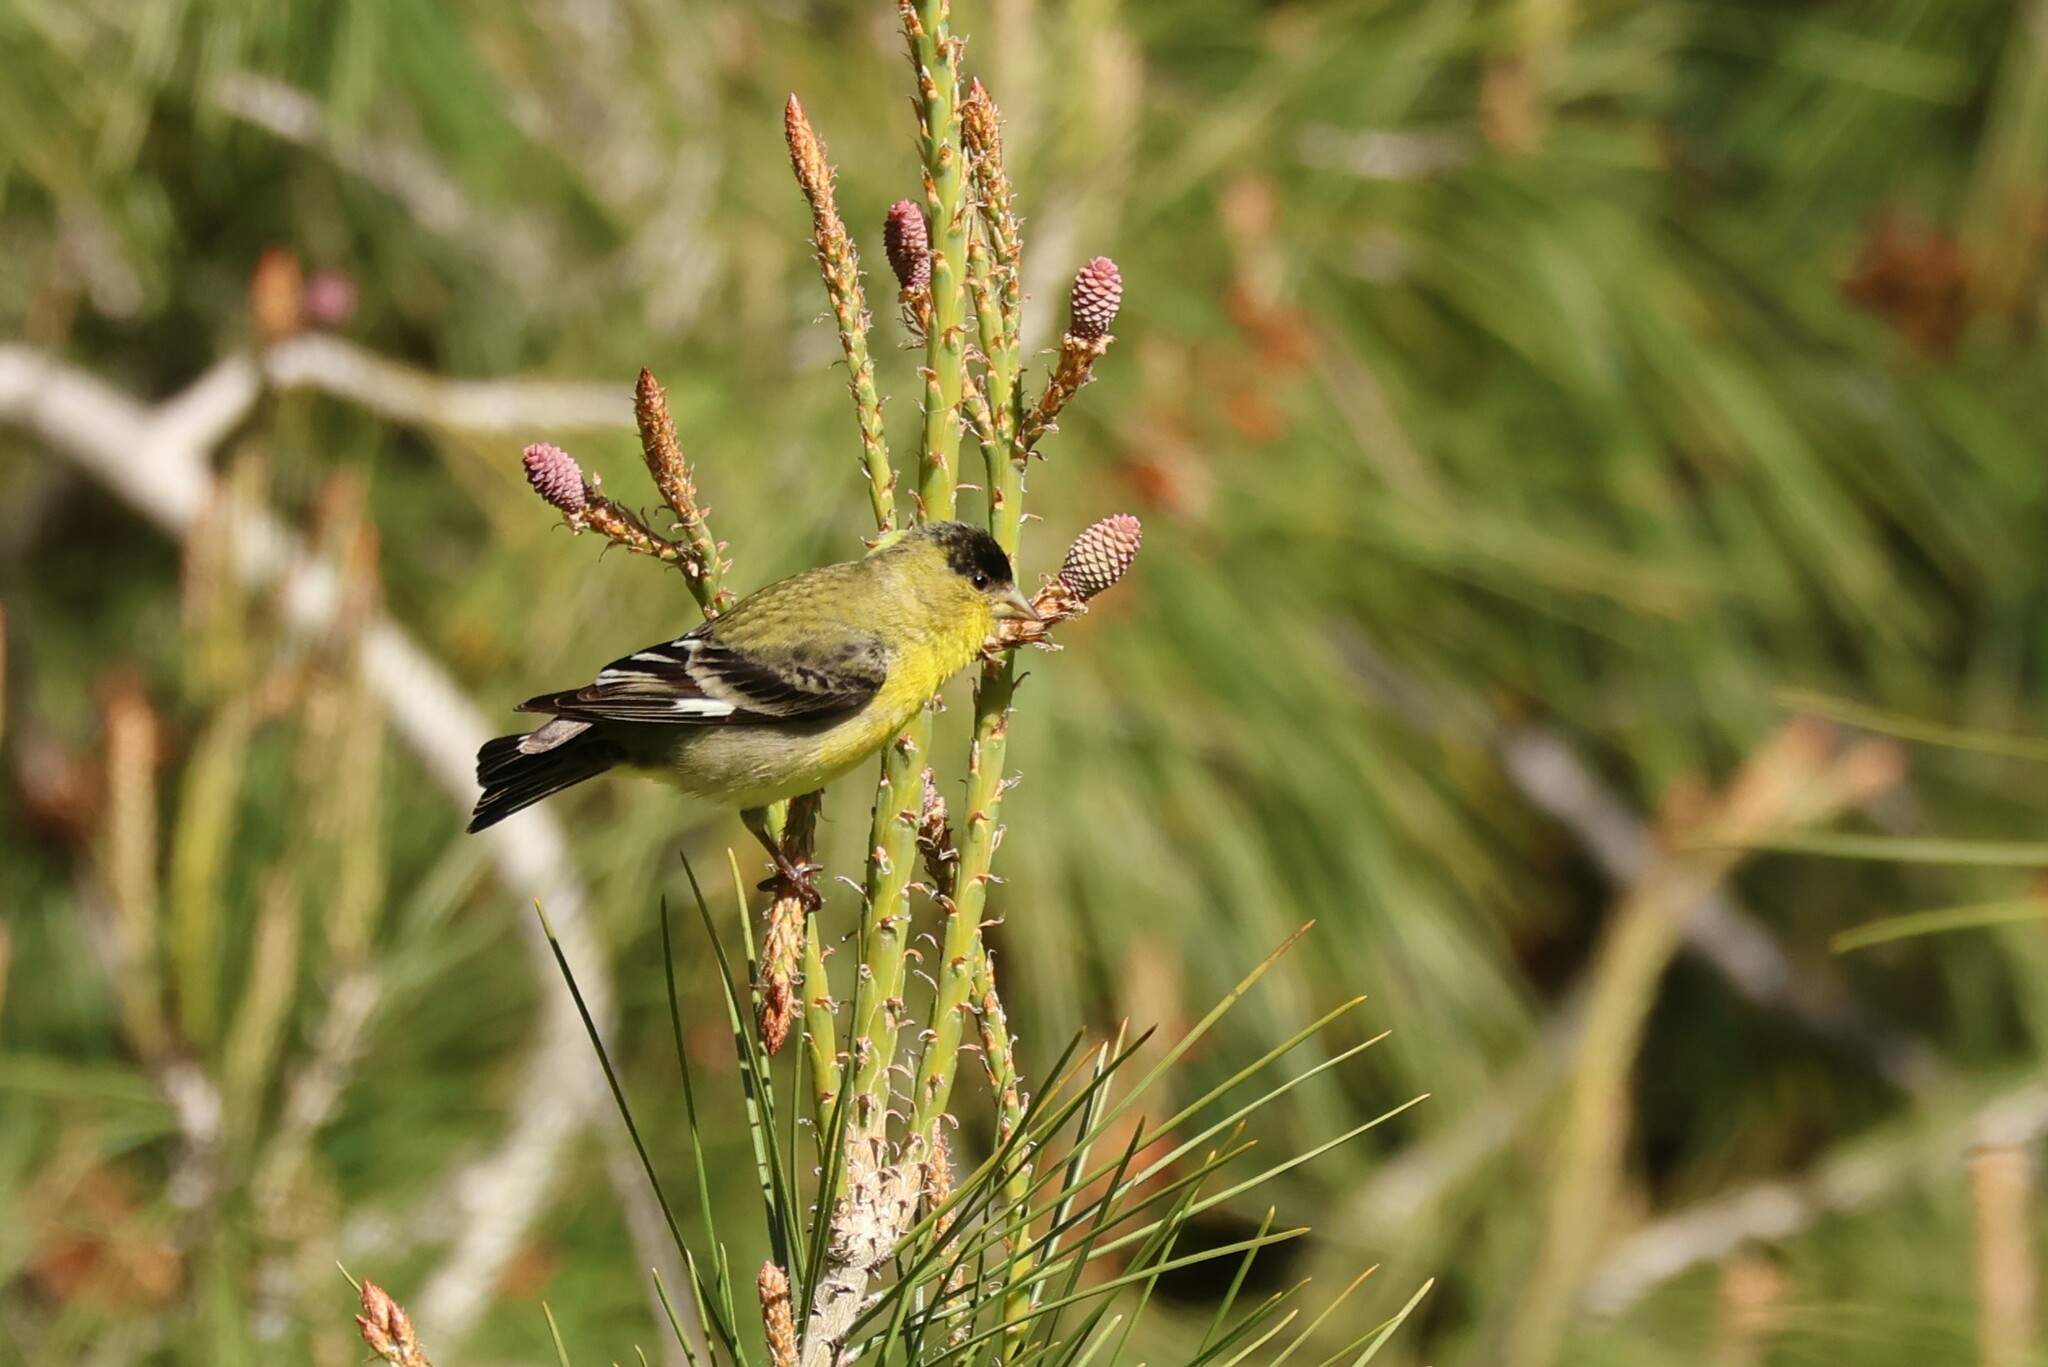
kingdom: Animalia
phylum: Chordata
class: Aves
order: Passeriformes
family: Fringillidae
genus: Spinus
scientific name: Spinus psaltria
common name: Lesser goldfinch
